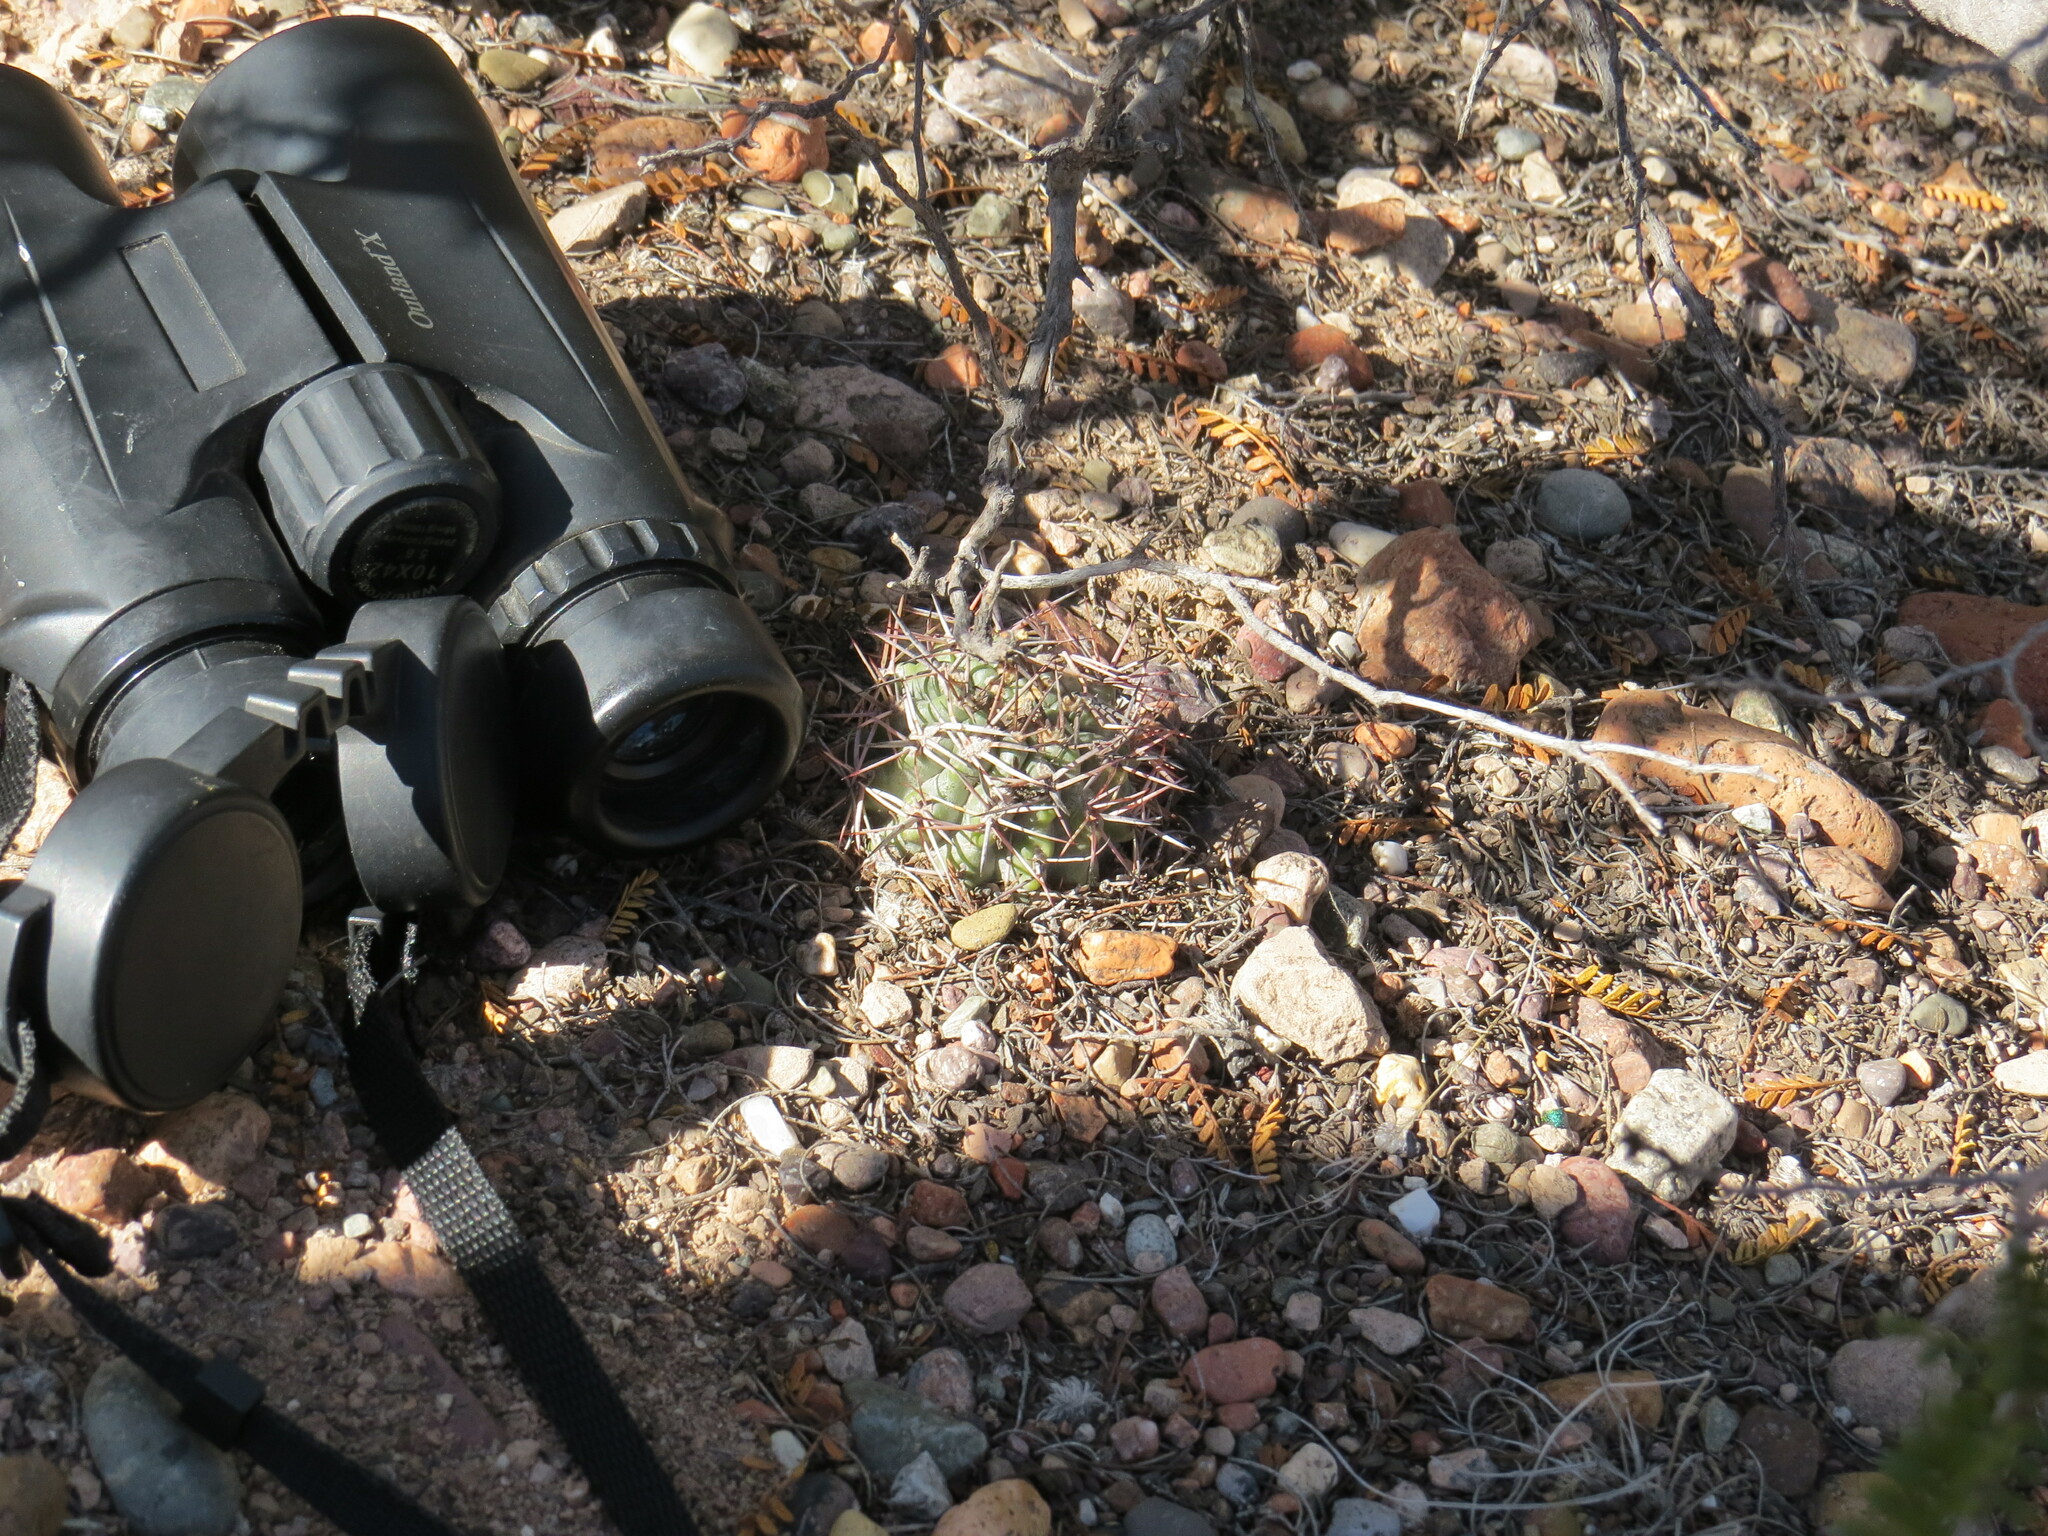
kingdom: Plantae
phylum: Tracheophyta
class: Magnoliopsida
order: Caryophyllales
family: Cactaceae
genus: Eriosyce
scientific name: Eriosyce strausiana
